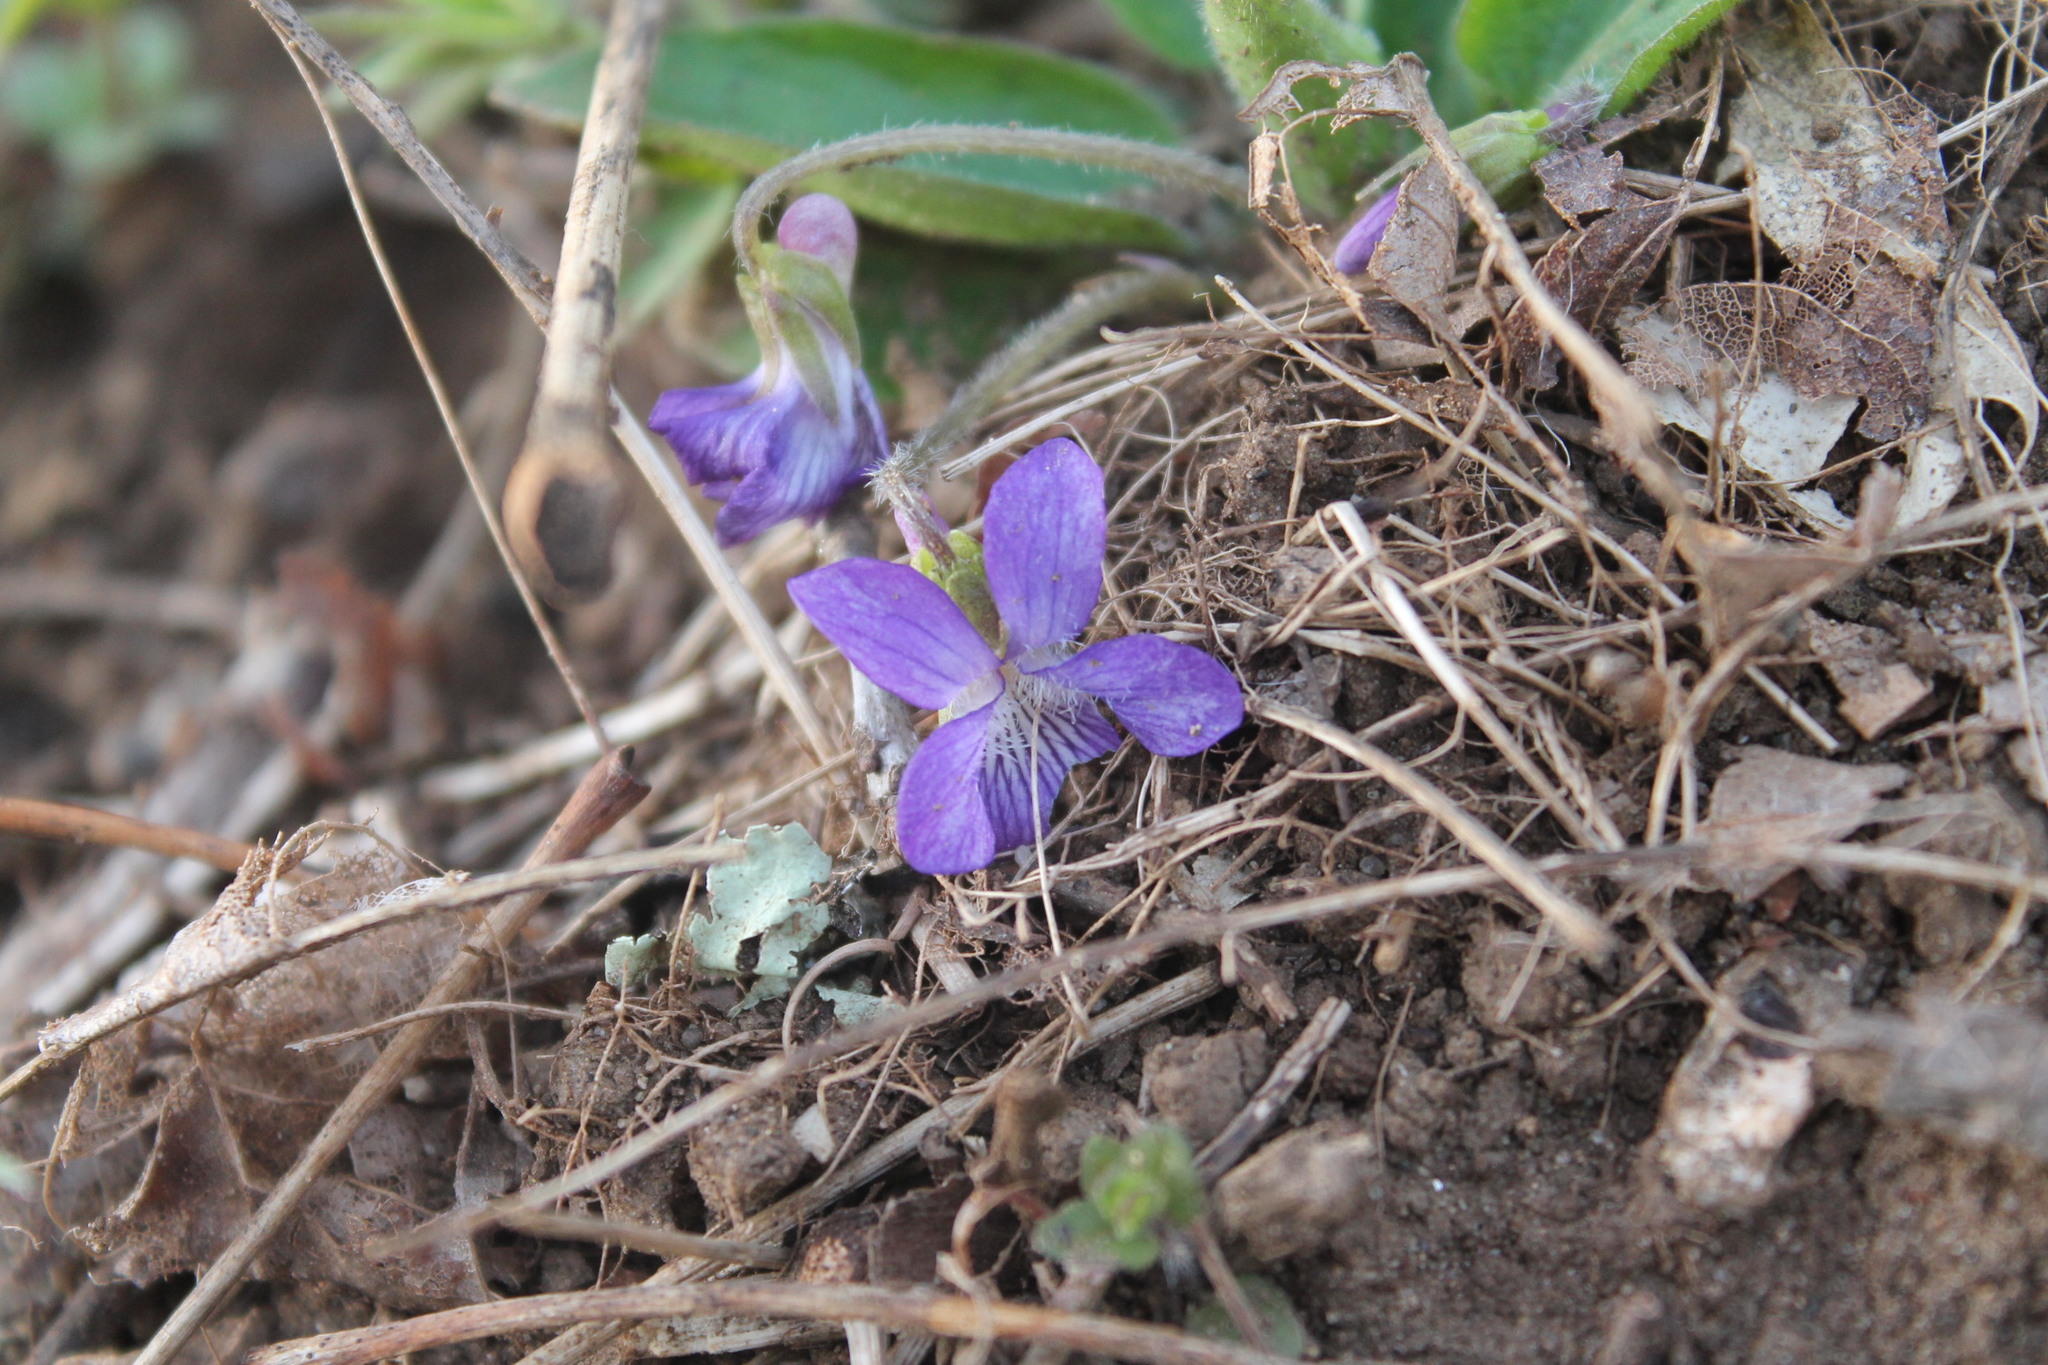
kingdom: Plantae
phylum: Tracheophyta
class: Magnoliopsida
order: Malpighiales
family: Violaceae
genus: Viola
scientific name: Viola sagittata
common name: Arrowhead violet
